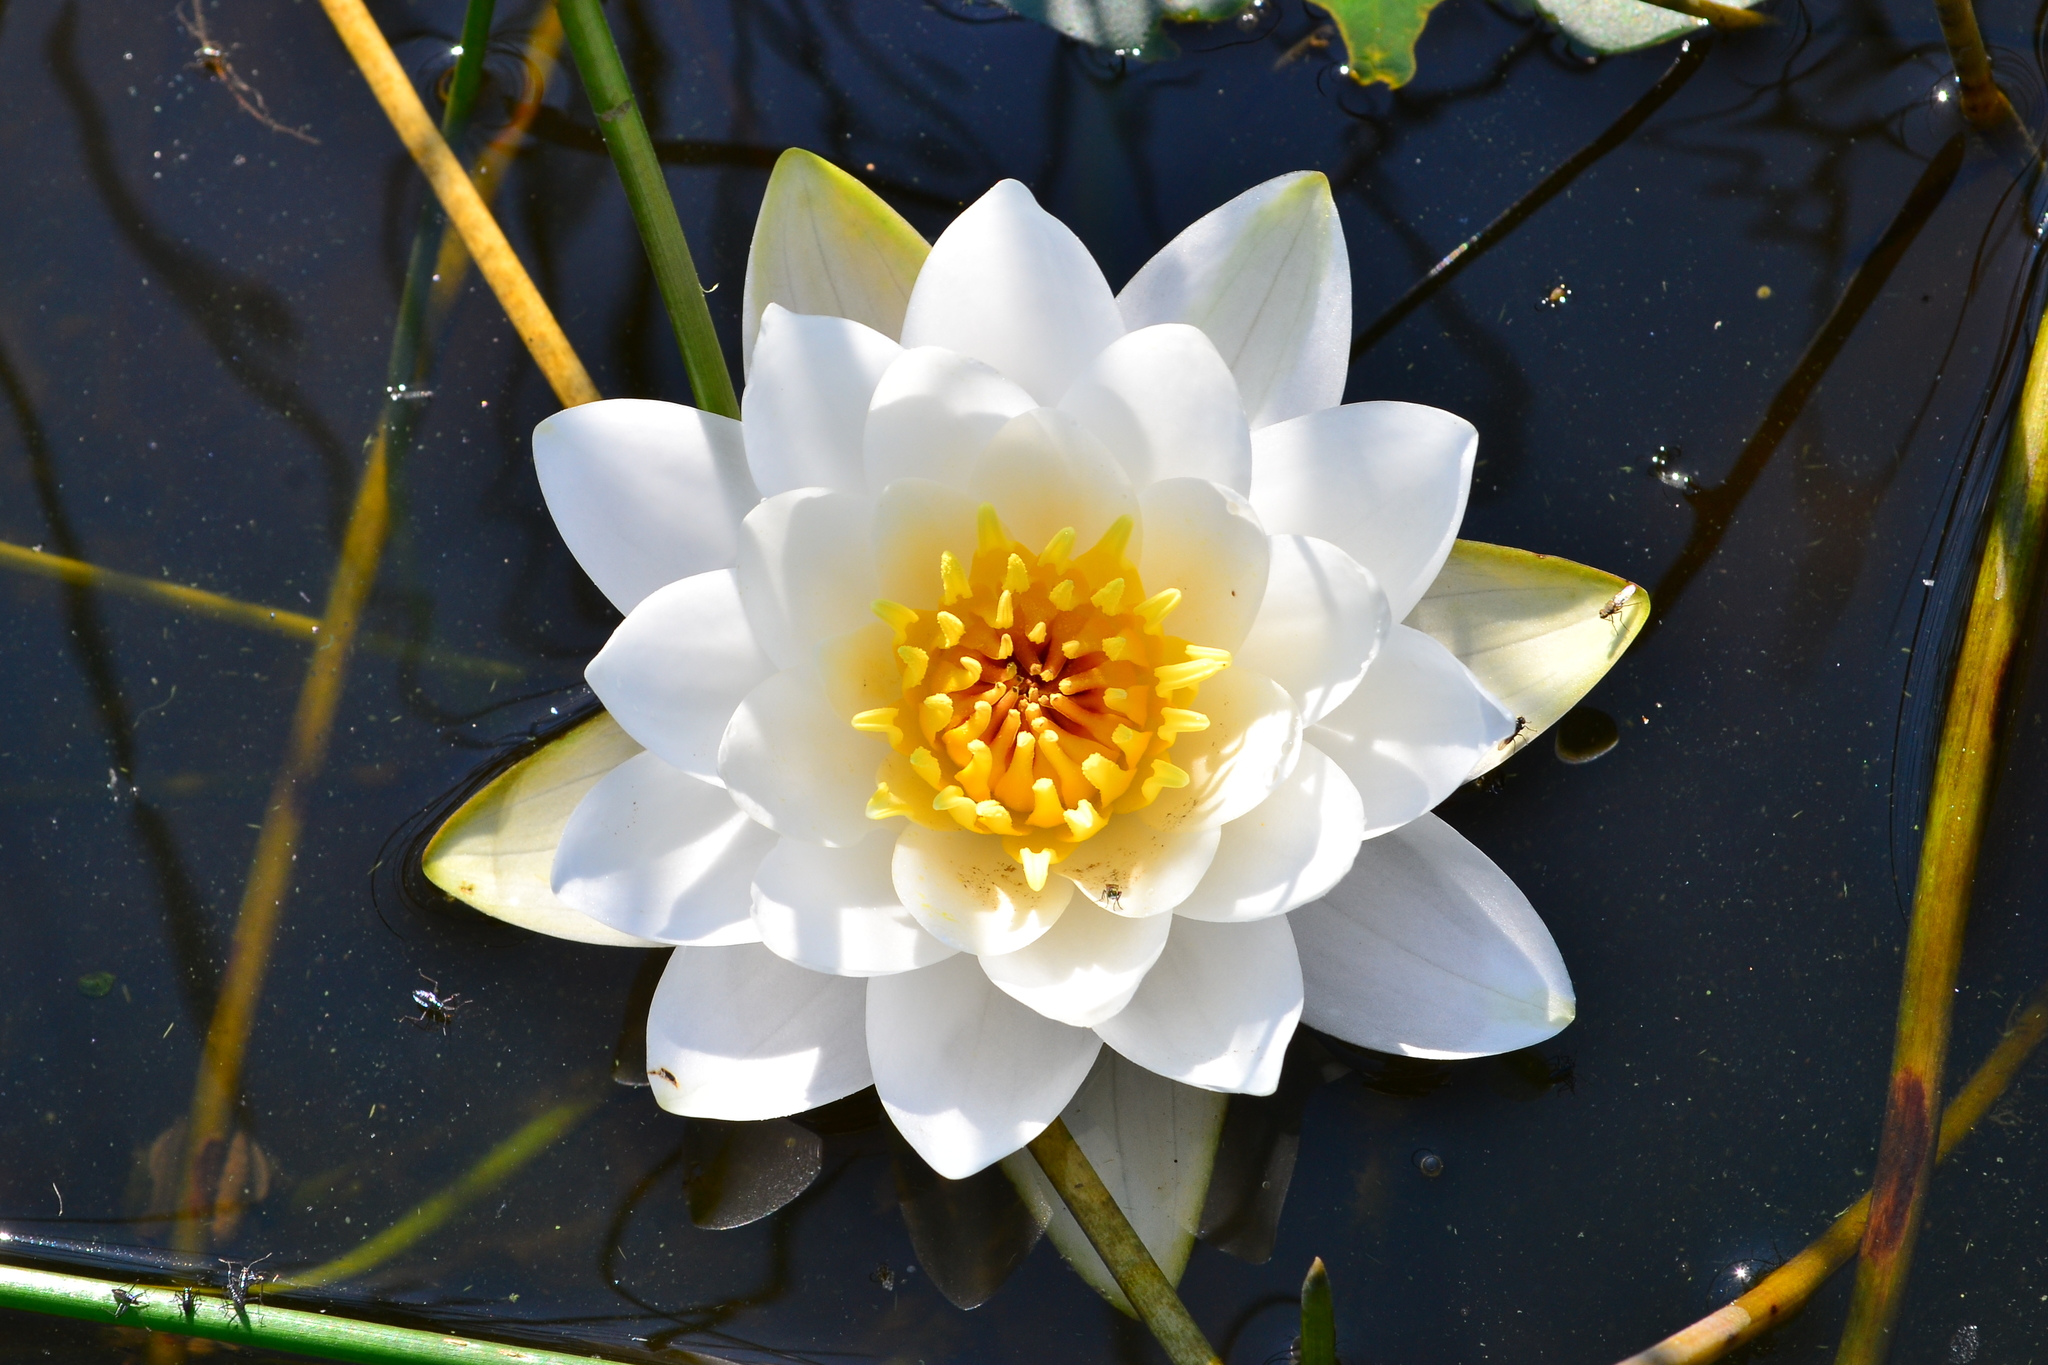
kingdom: Plantae
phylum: Tracheophyta
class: Magnoliopsida
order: Nymphaeales
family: Nymphaeaceae
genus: Nymphaea
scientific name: Nymphaea candida
